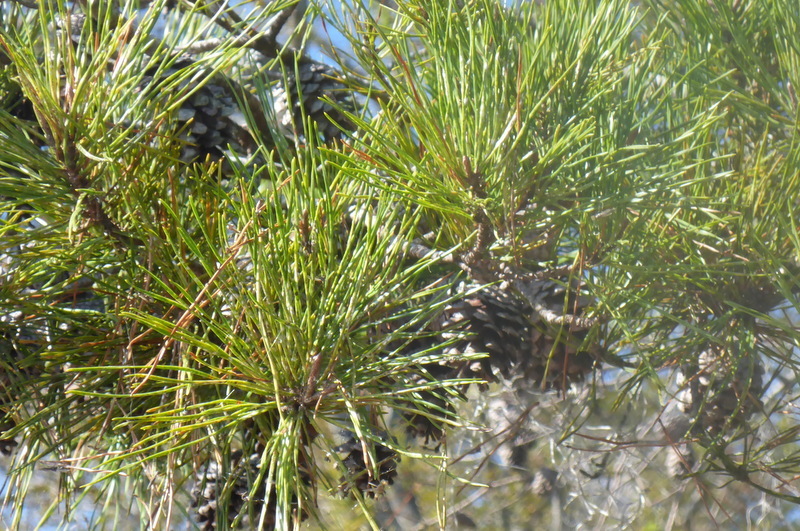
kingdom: Plantae
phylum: Tracheophyta
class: Pinopsida
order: Pinales
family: Pinaceae
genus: Pinus
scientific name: Pinus clausa
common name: Sand pine
